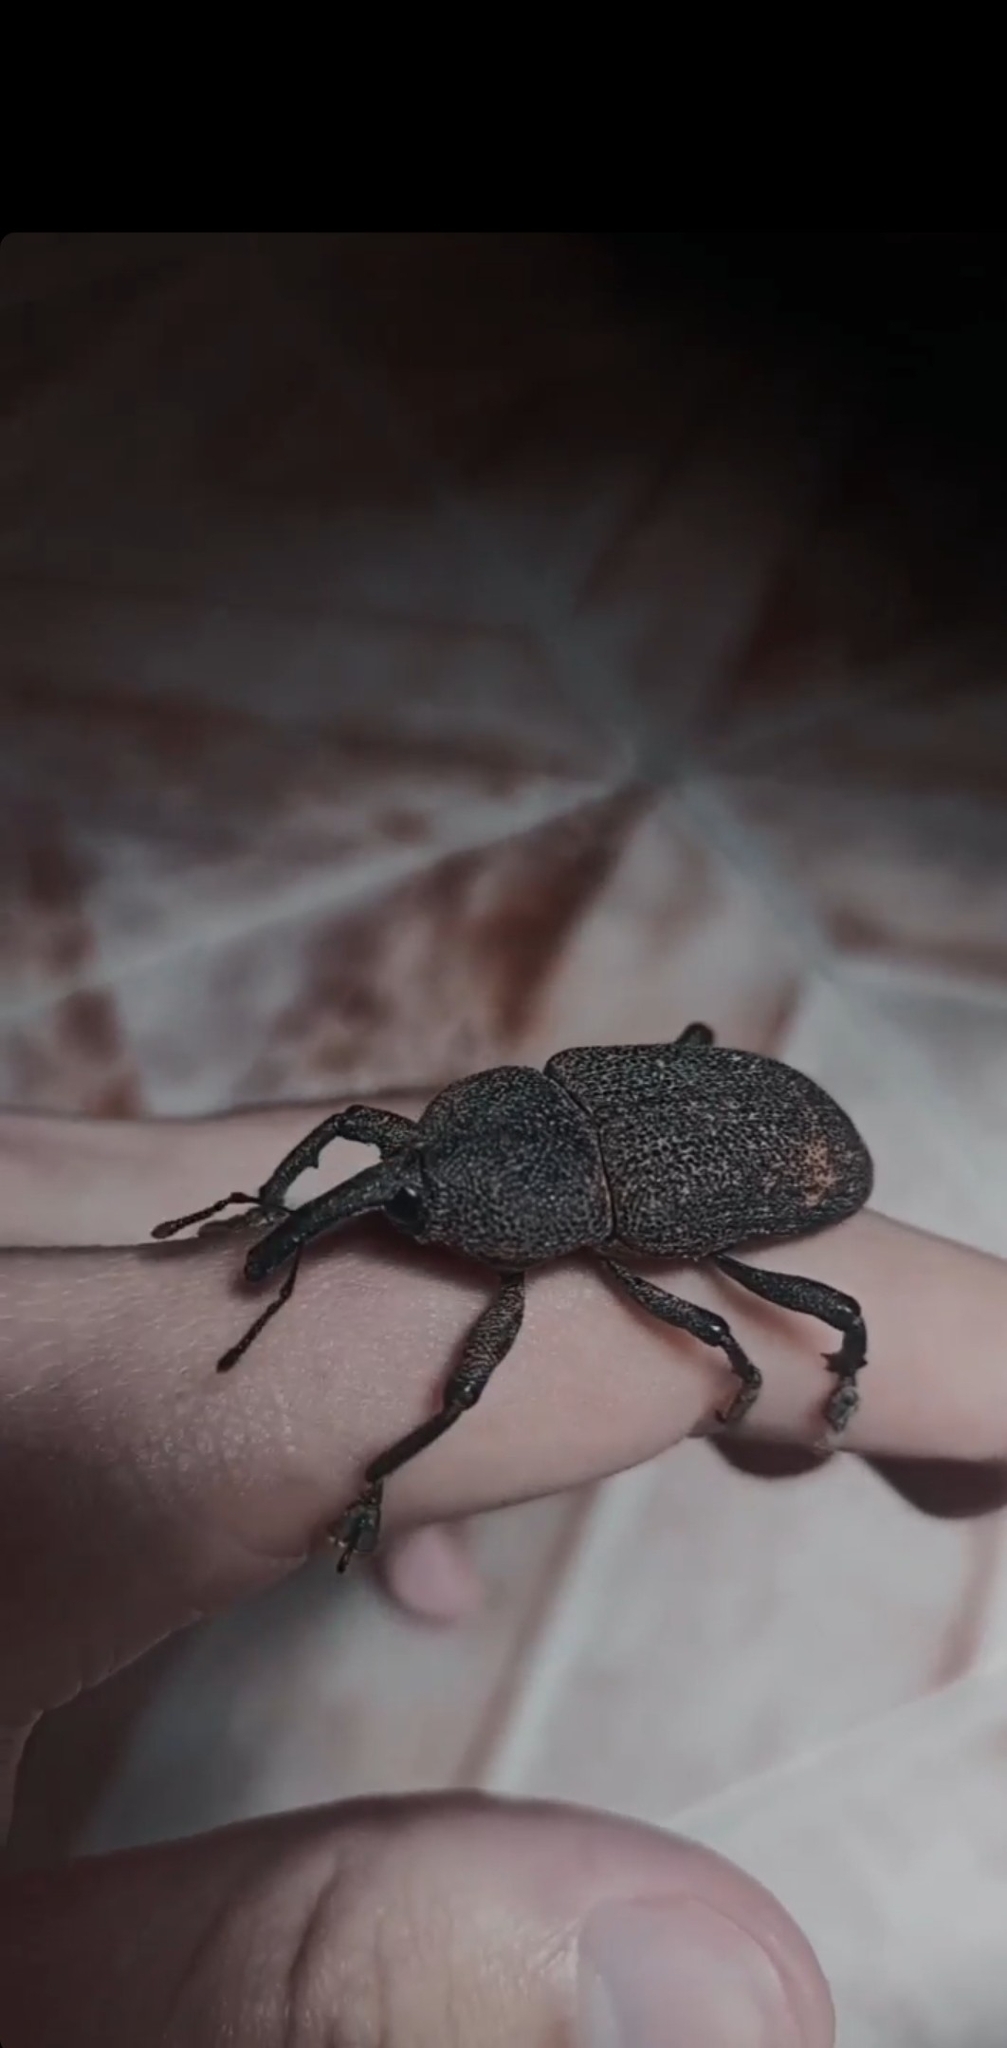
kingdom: Animalia
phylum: Arthropoda
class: Insecta
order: Coleoptera
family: Curculionidae
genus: Homalinotus
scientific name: Homalinotus coriaceus
